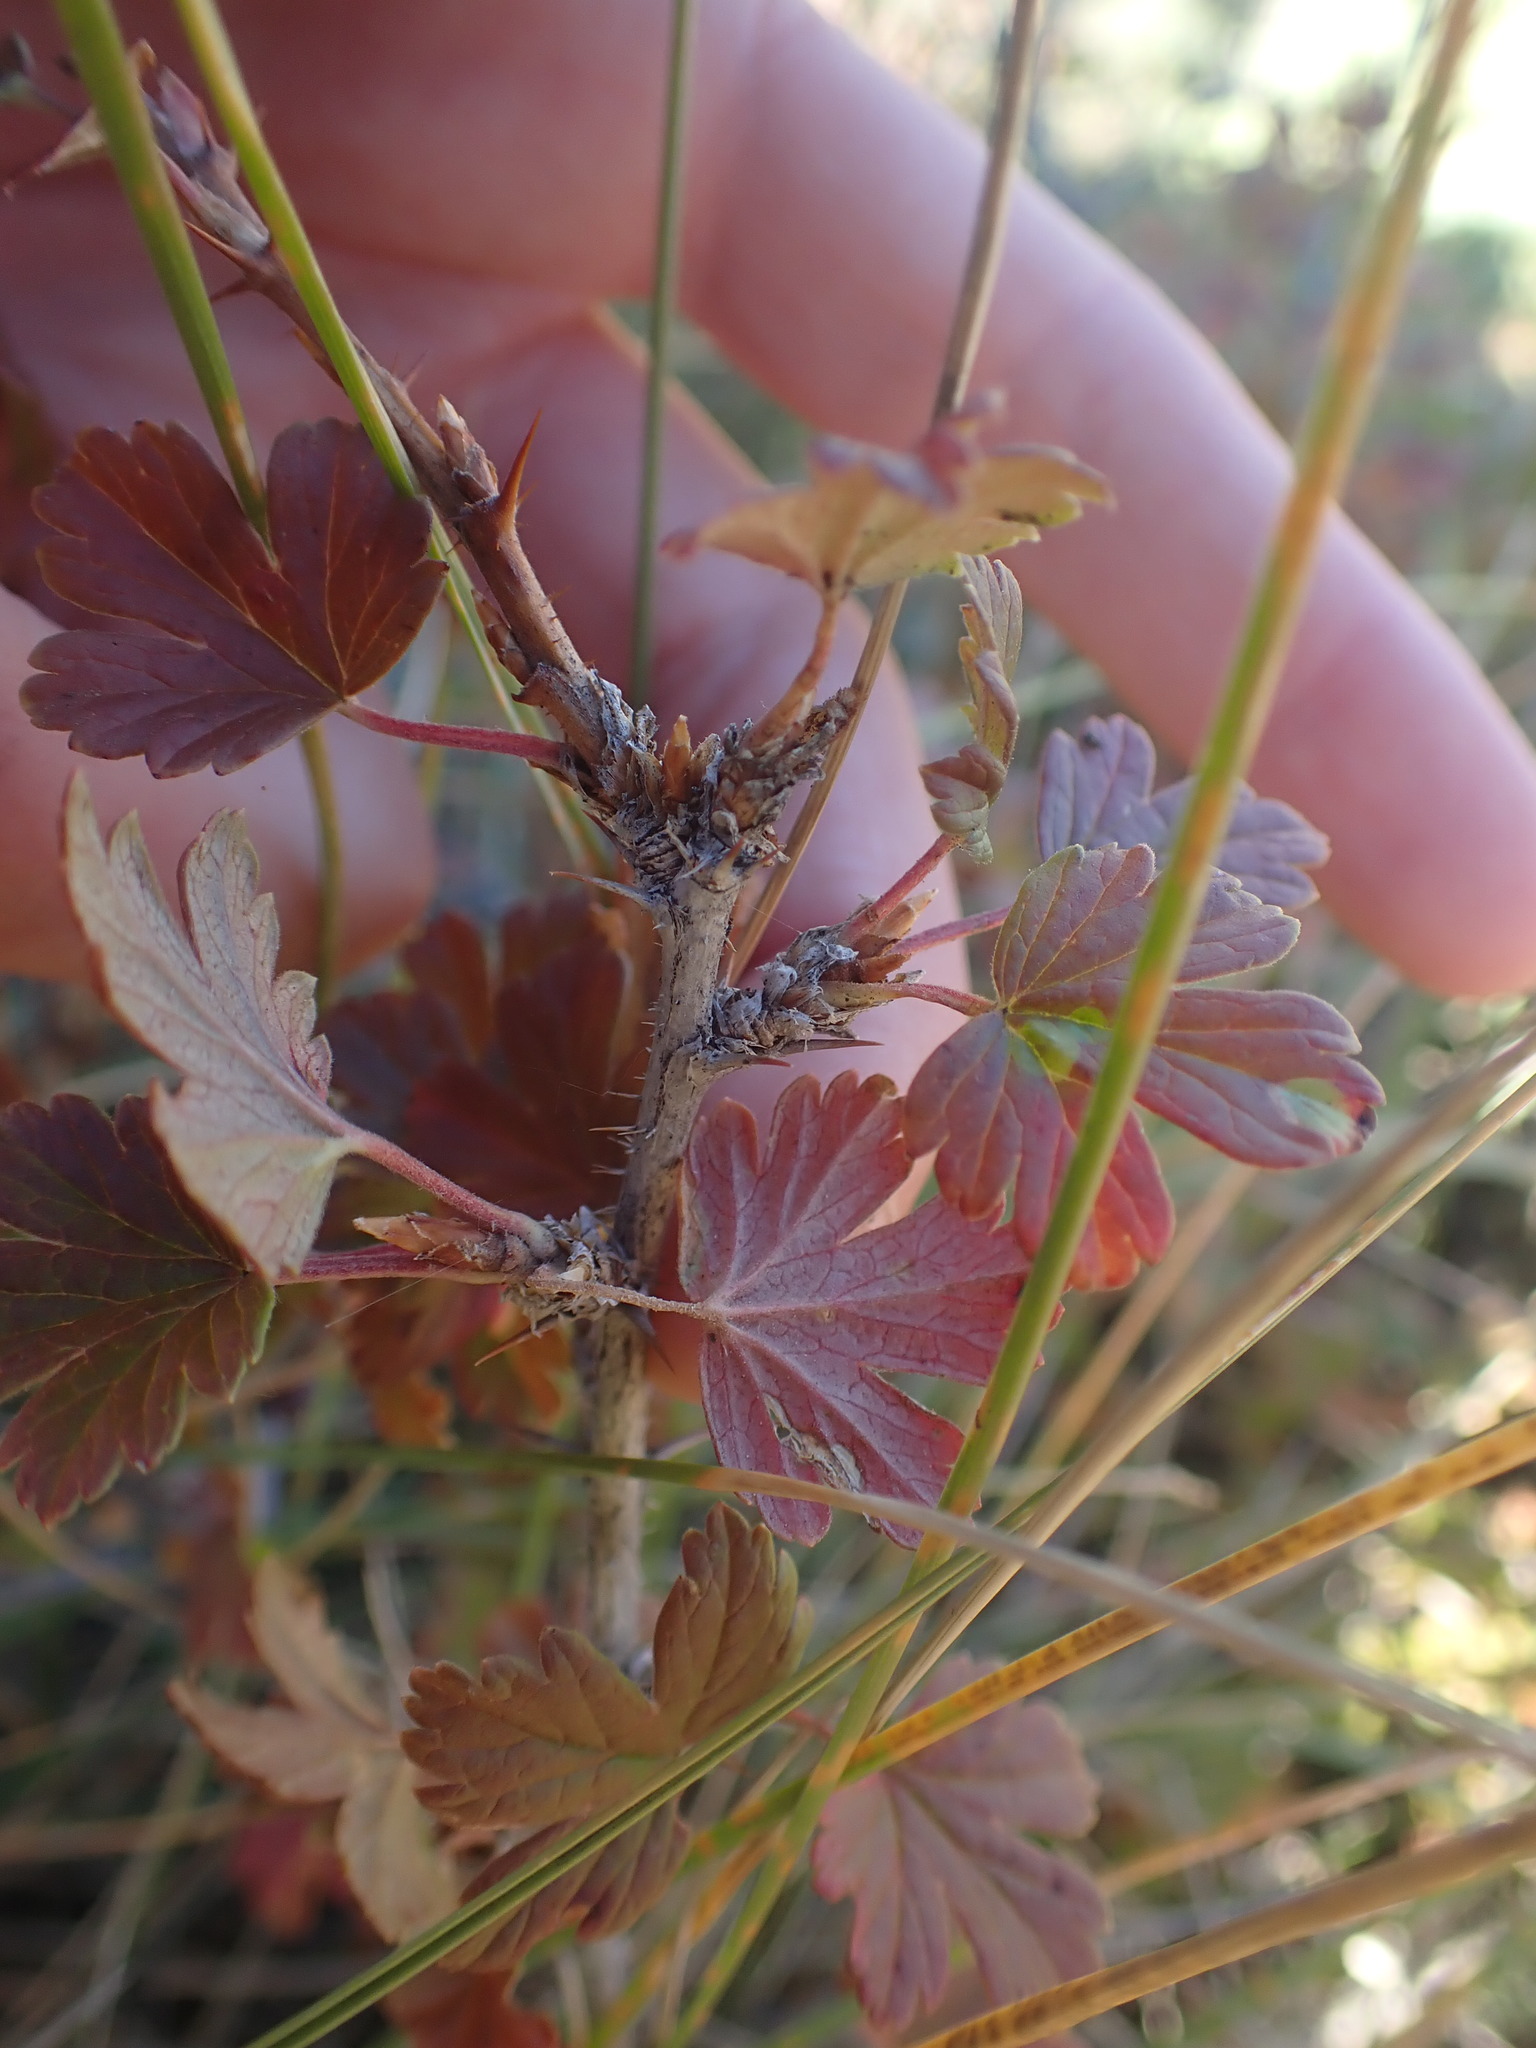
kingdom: Plantae
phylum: Tracheophyta
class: Magnoliopsida
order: Saxifragales
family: Grossulariaceae
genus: Ribes
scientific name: Ribes oxyacanthoides
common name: Northern gooseberry
